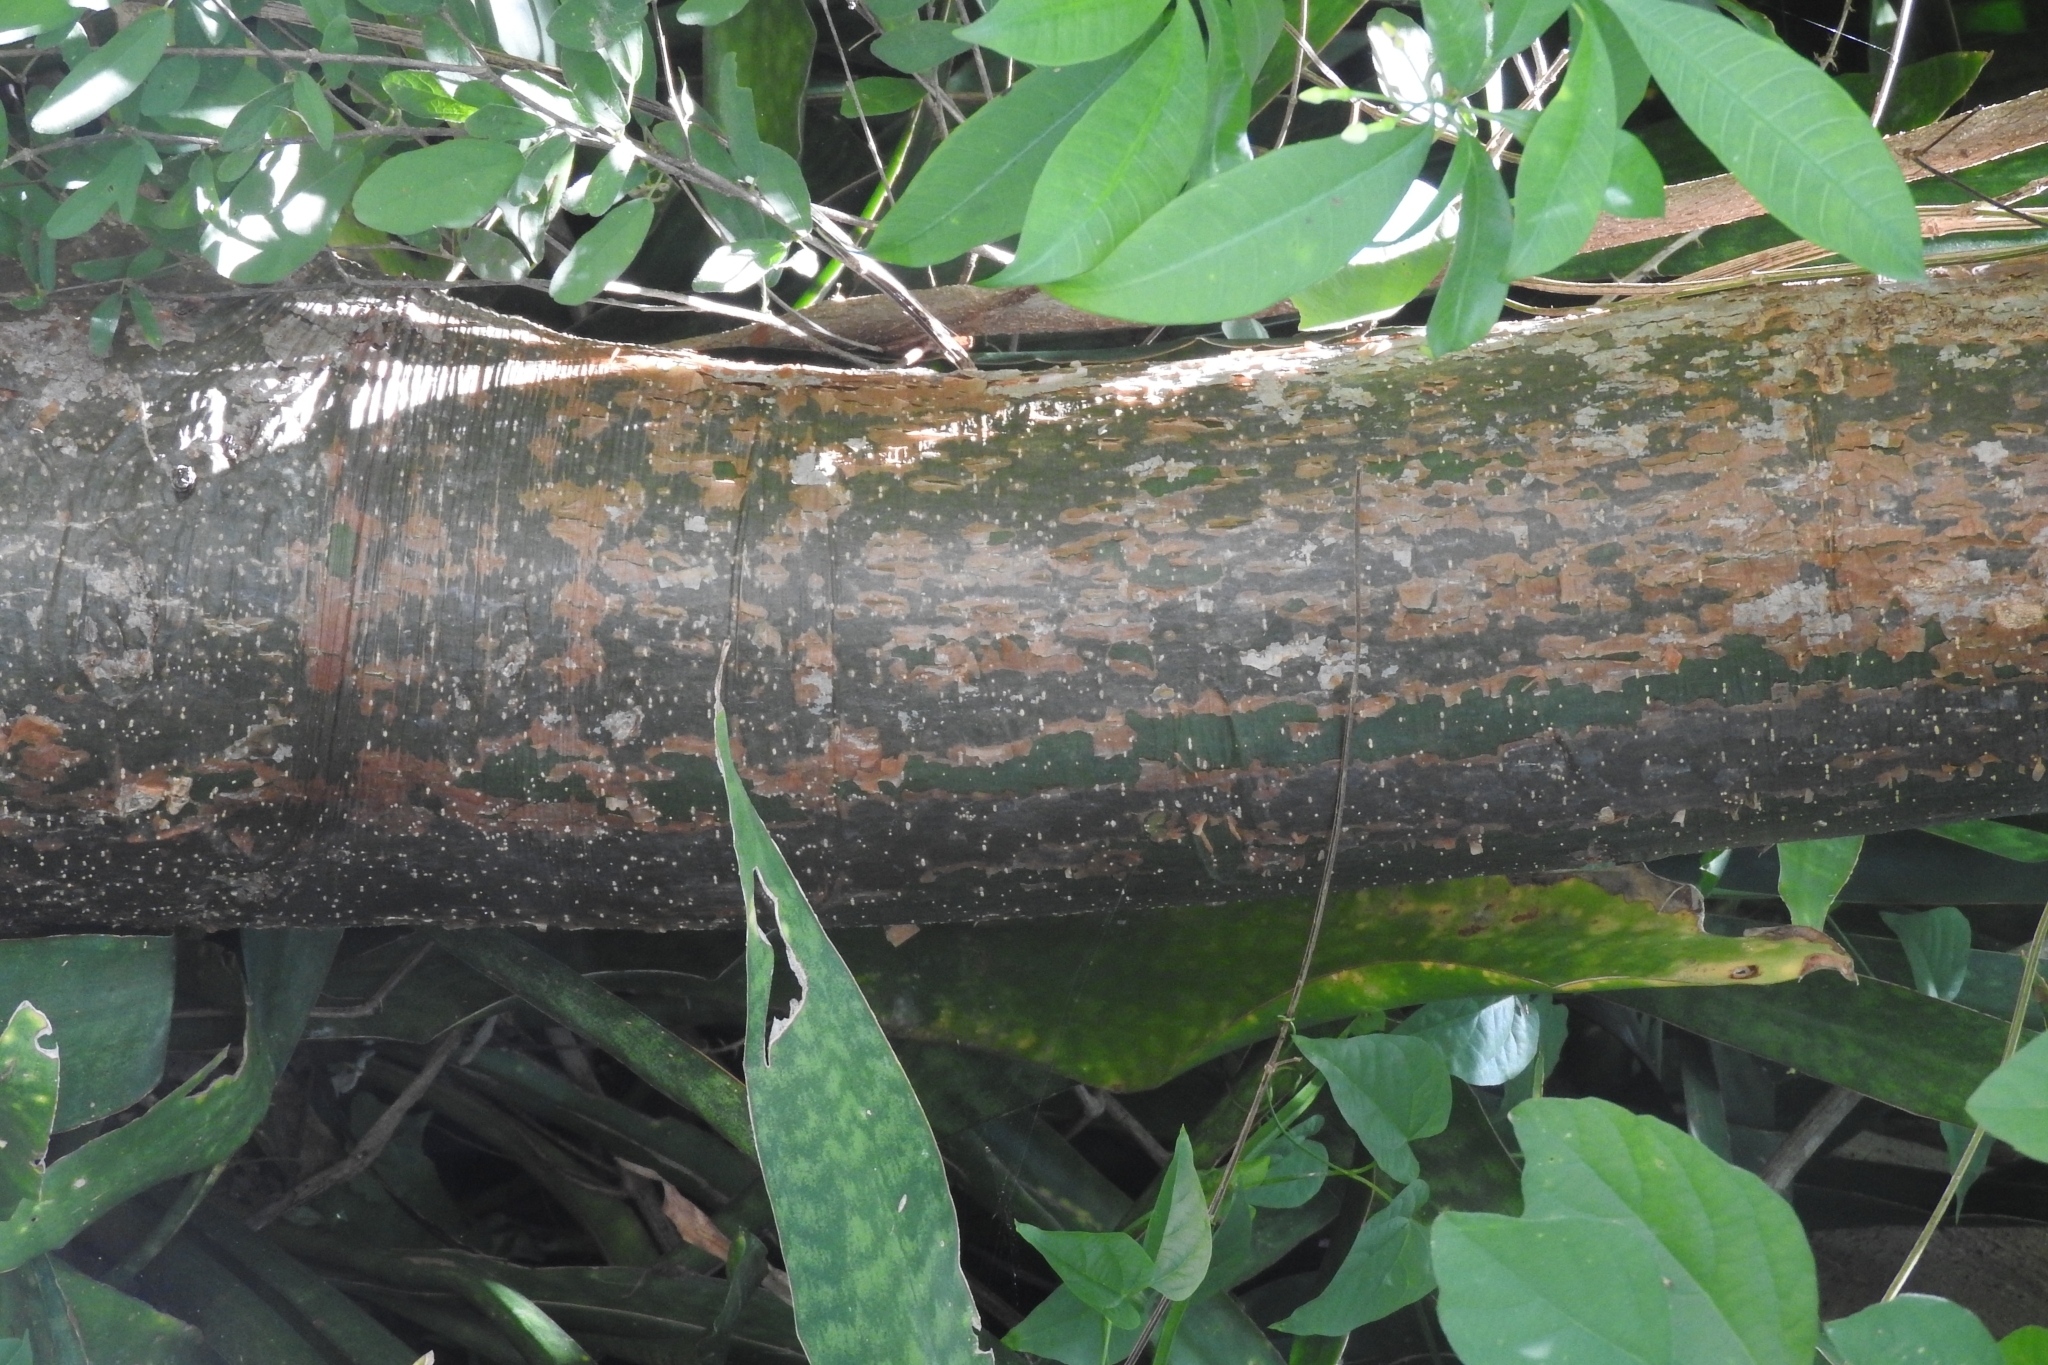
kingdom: Plantae
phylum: Tracheophyta
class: Magnoliopsida
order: Sapindales
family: Burseraceae
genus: Bursera
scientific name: Bursera simaruba
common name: Turpentine tree
